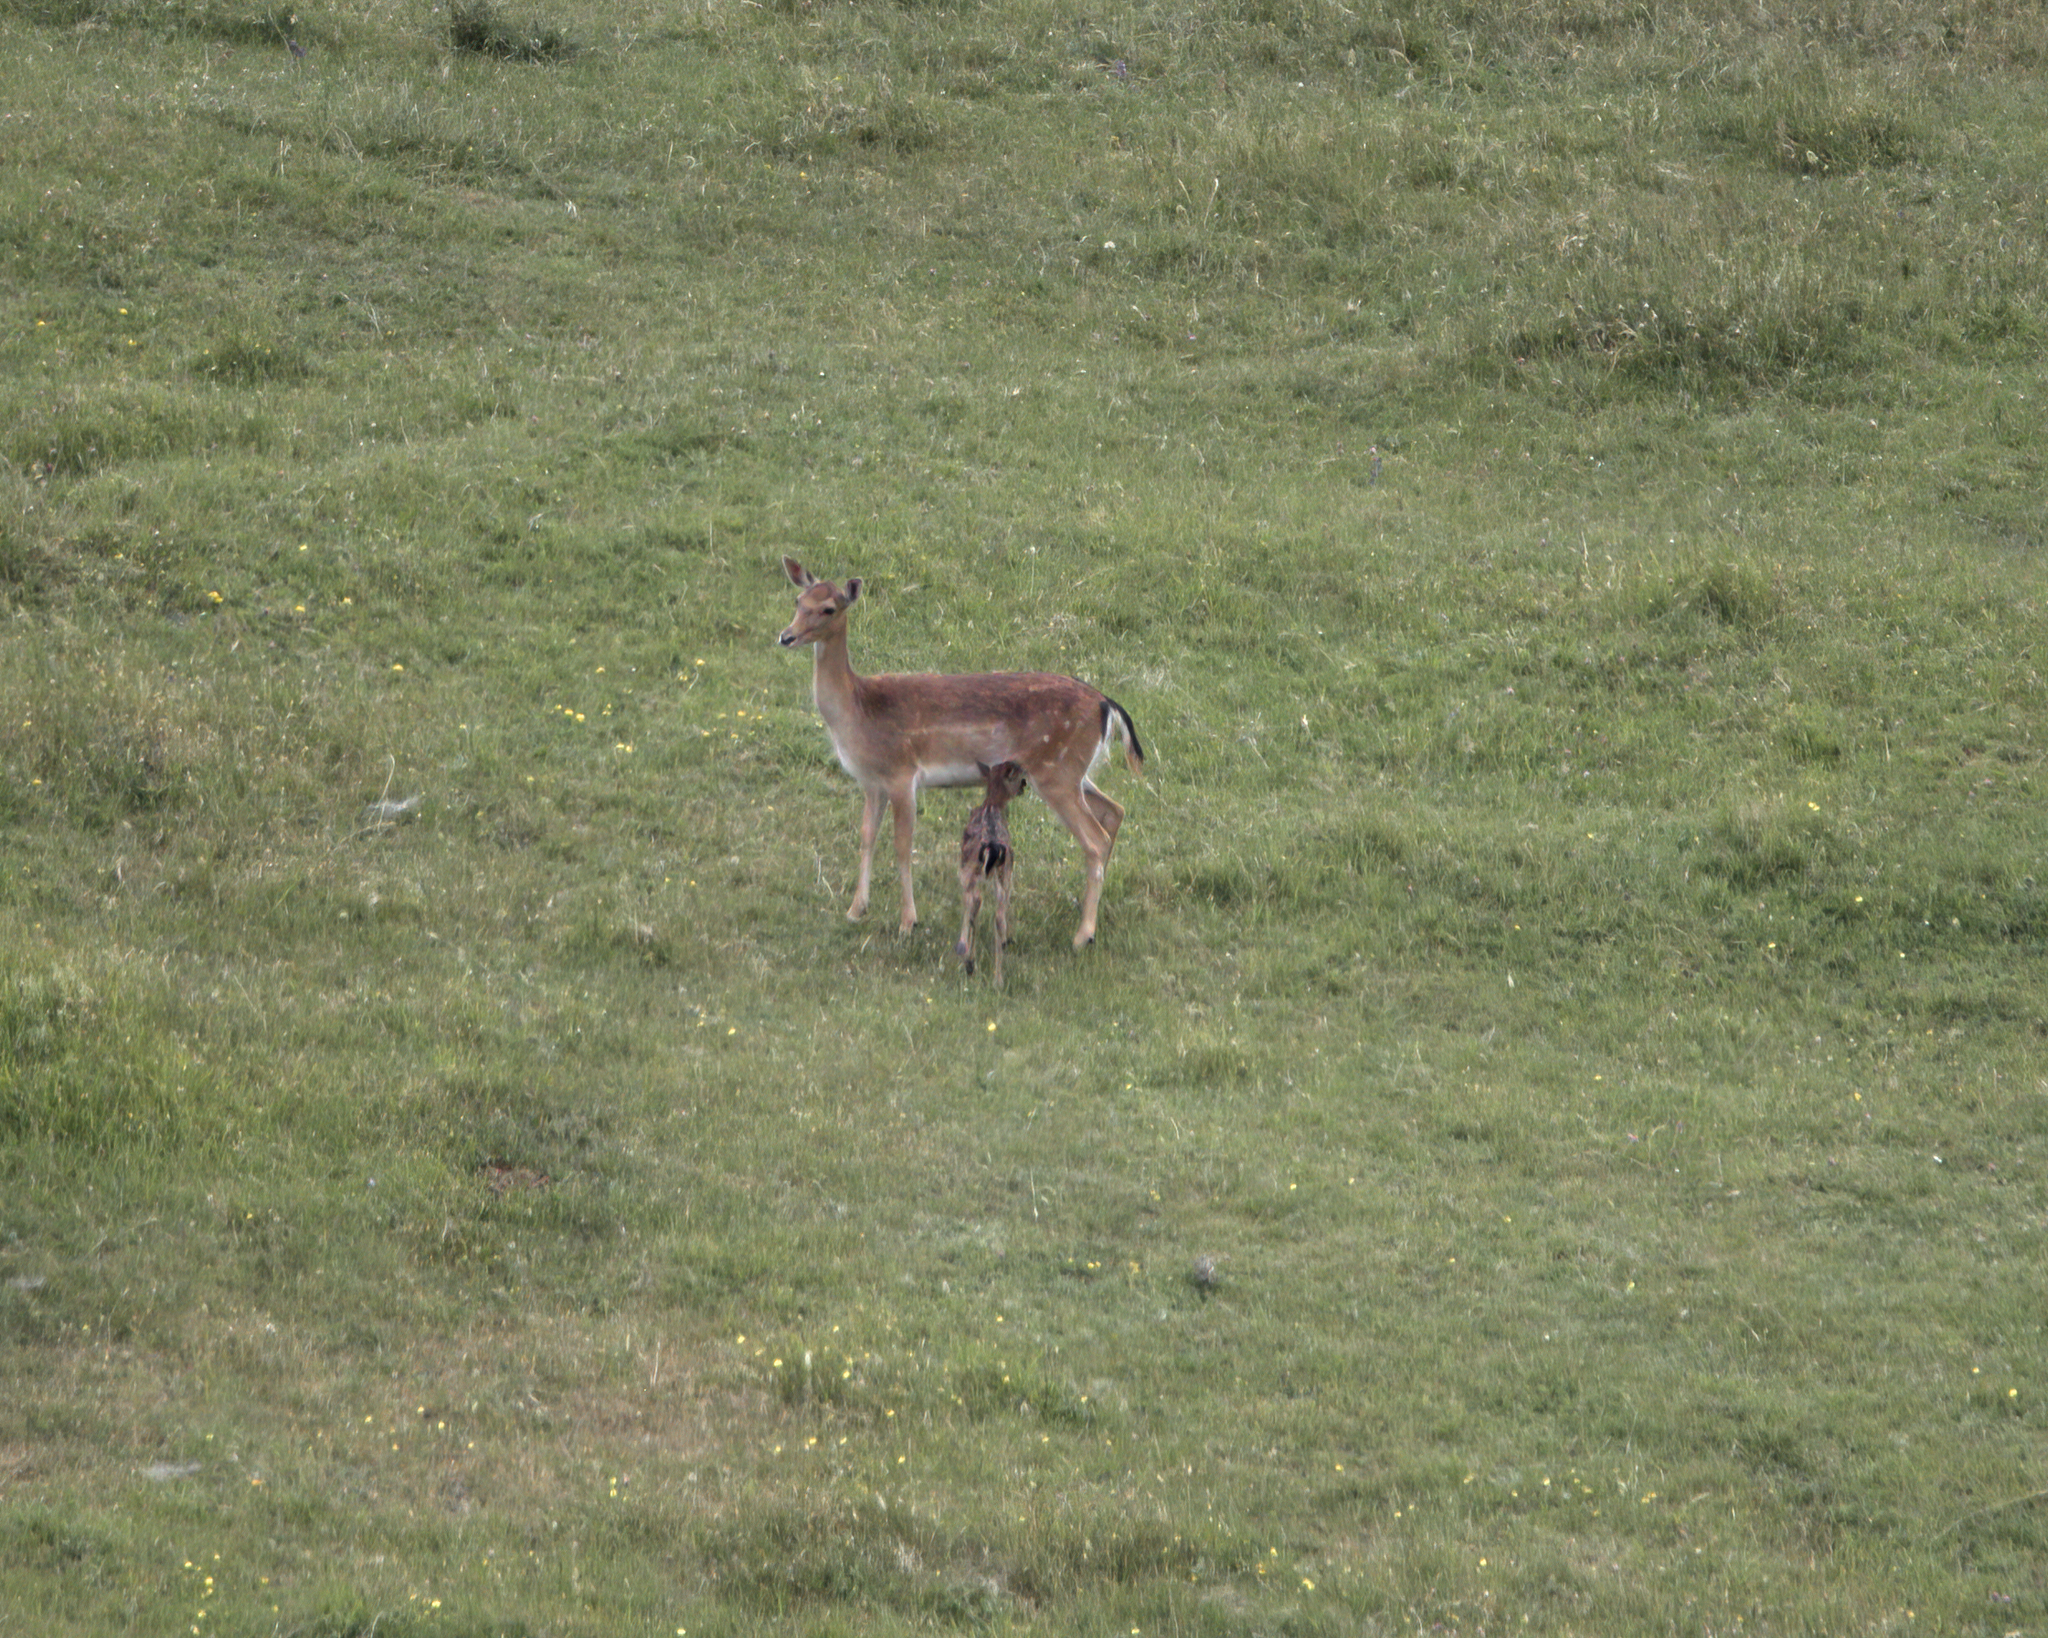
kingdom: Animalia
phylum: Chordata
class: Mammalia
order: Artiodactyla
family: Cervidae
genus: Dama
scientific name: Dama dama
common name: Fallow deer
